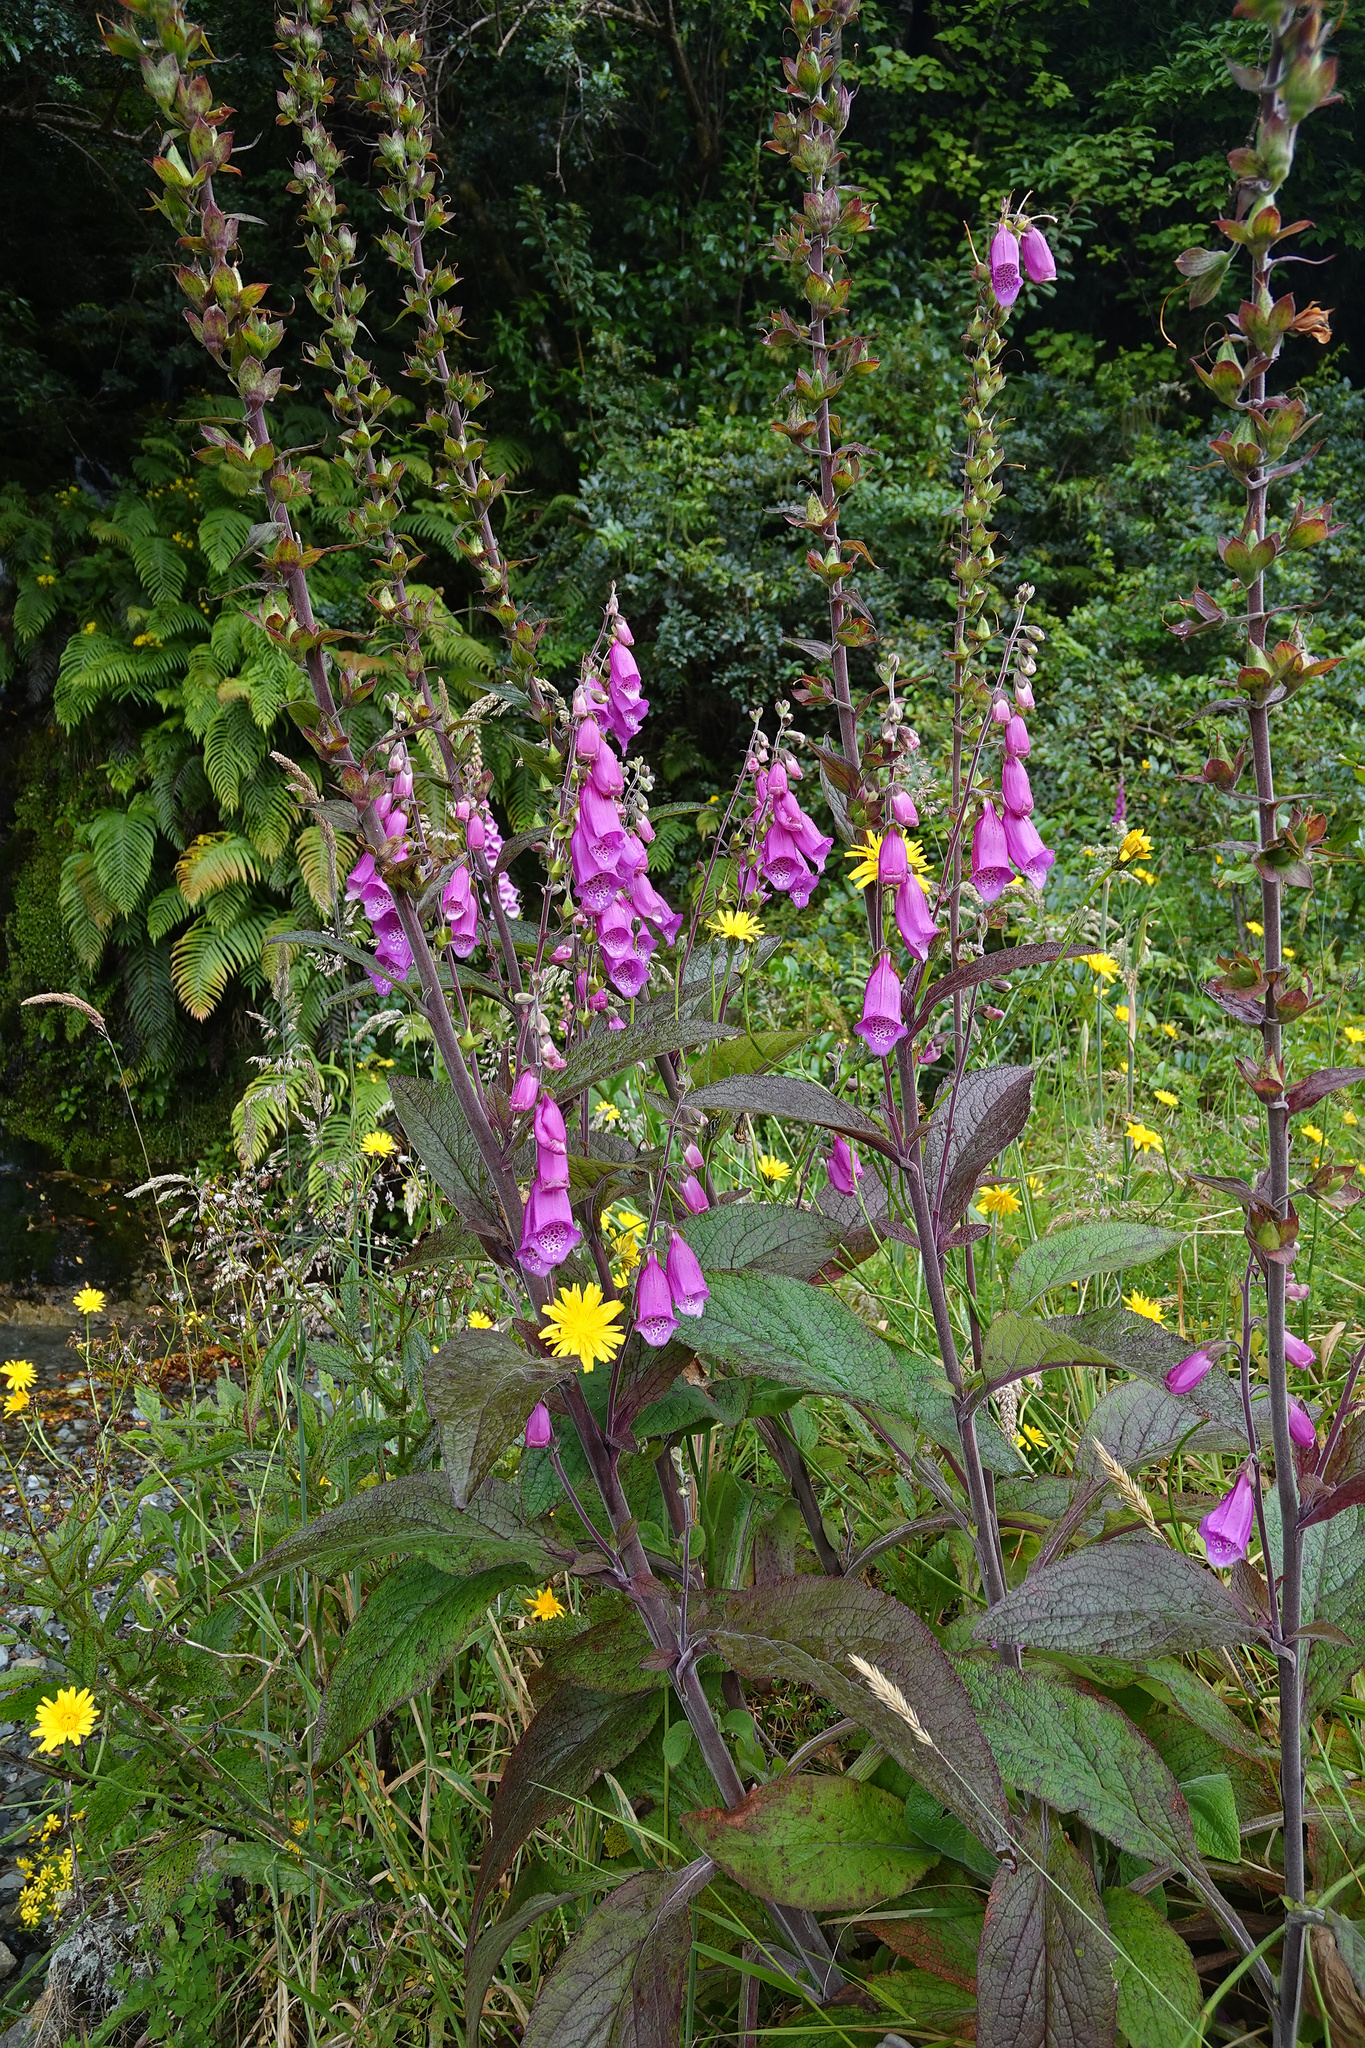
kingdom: Plantae
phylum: Tracheophyta
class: Magnoliopsida
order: Lamiales
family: Plantaginaceae
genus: Digitalis
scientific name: Digitalis purpurea
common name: Foxglove
